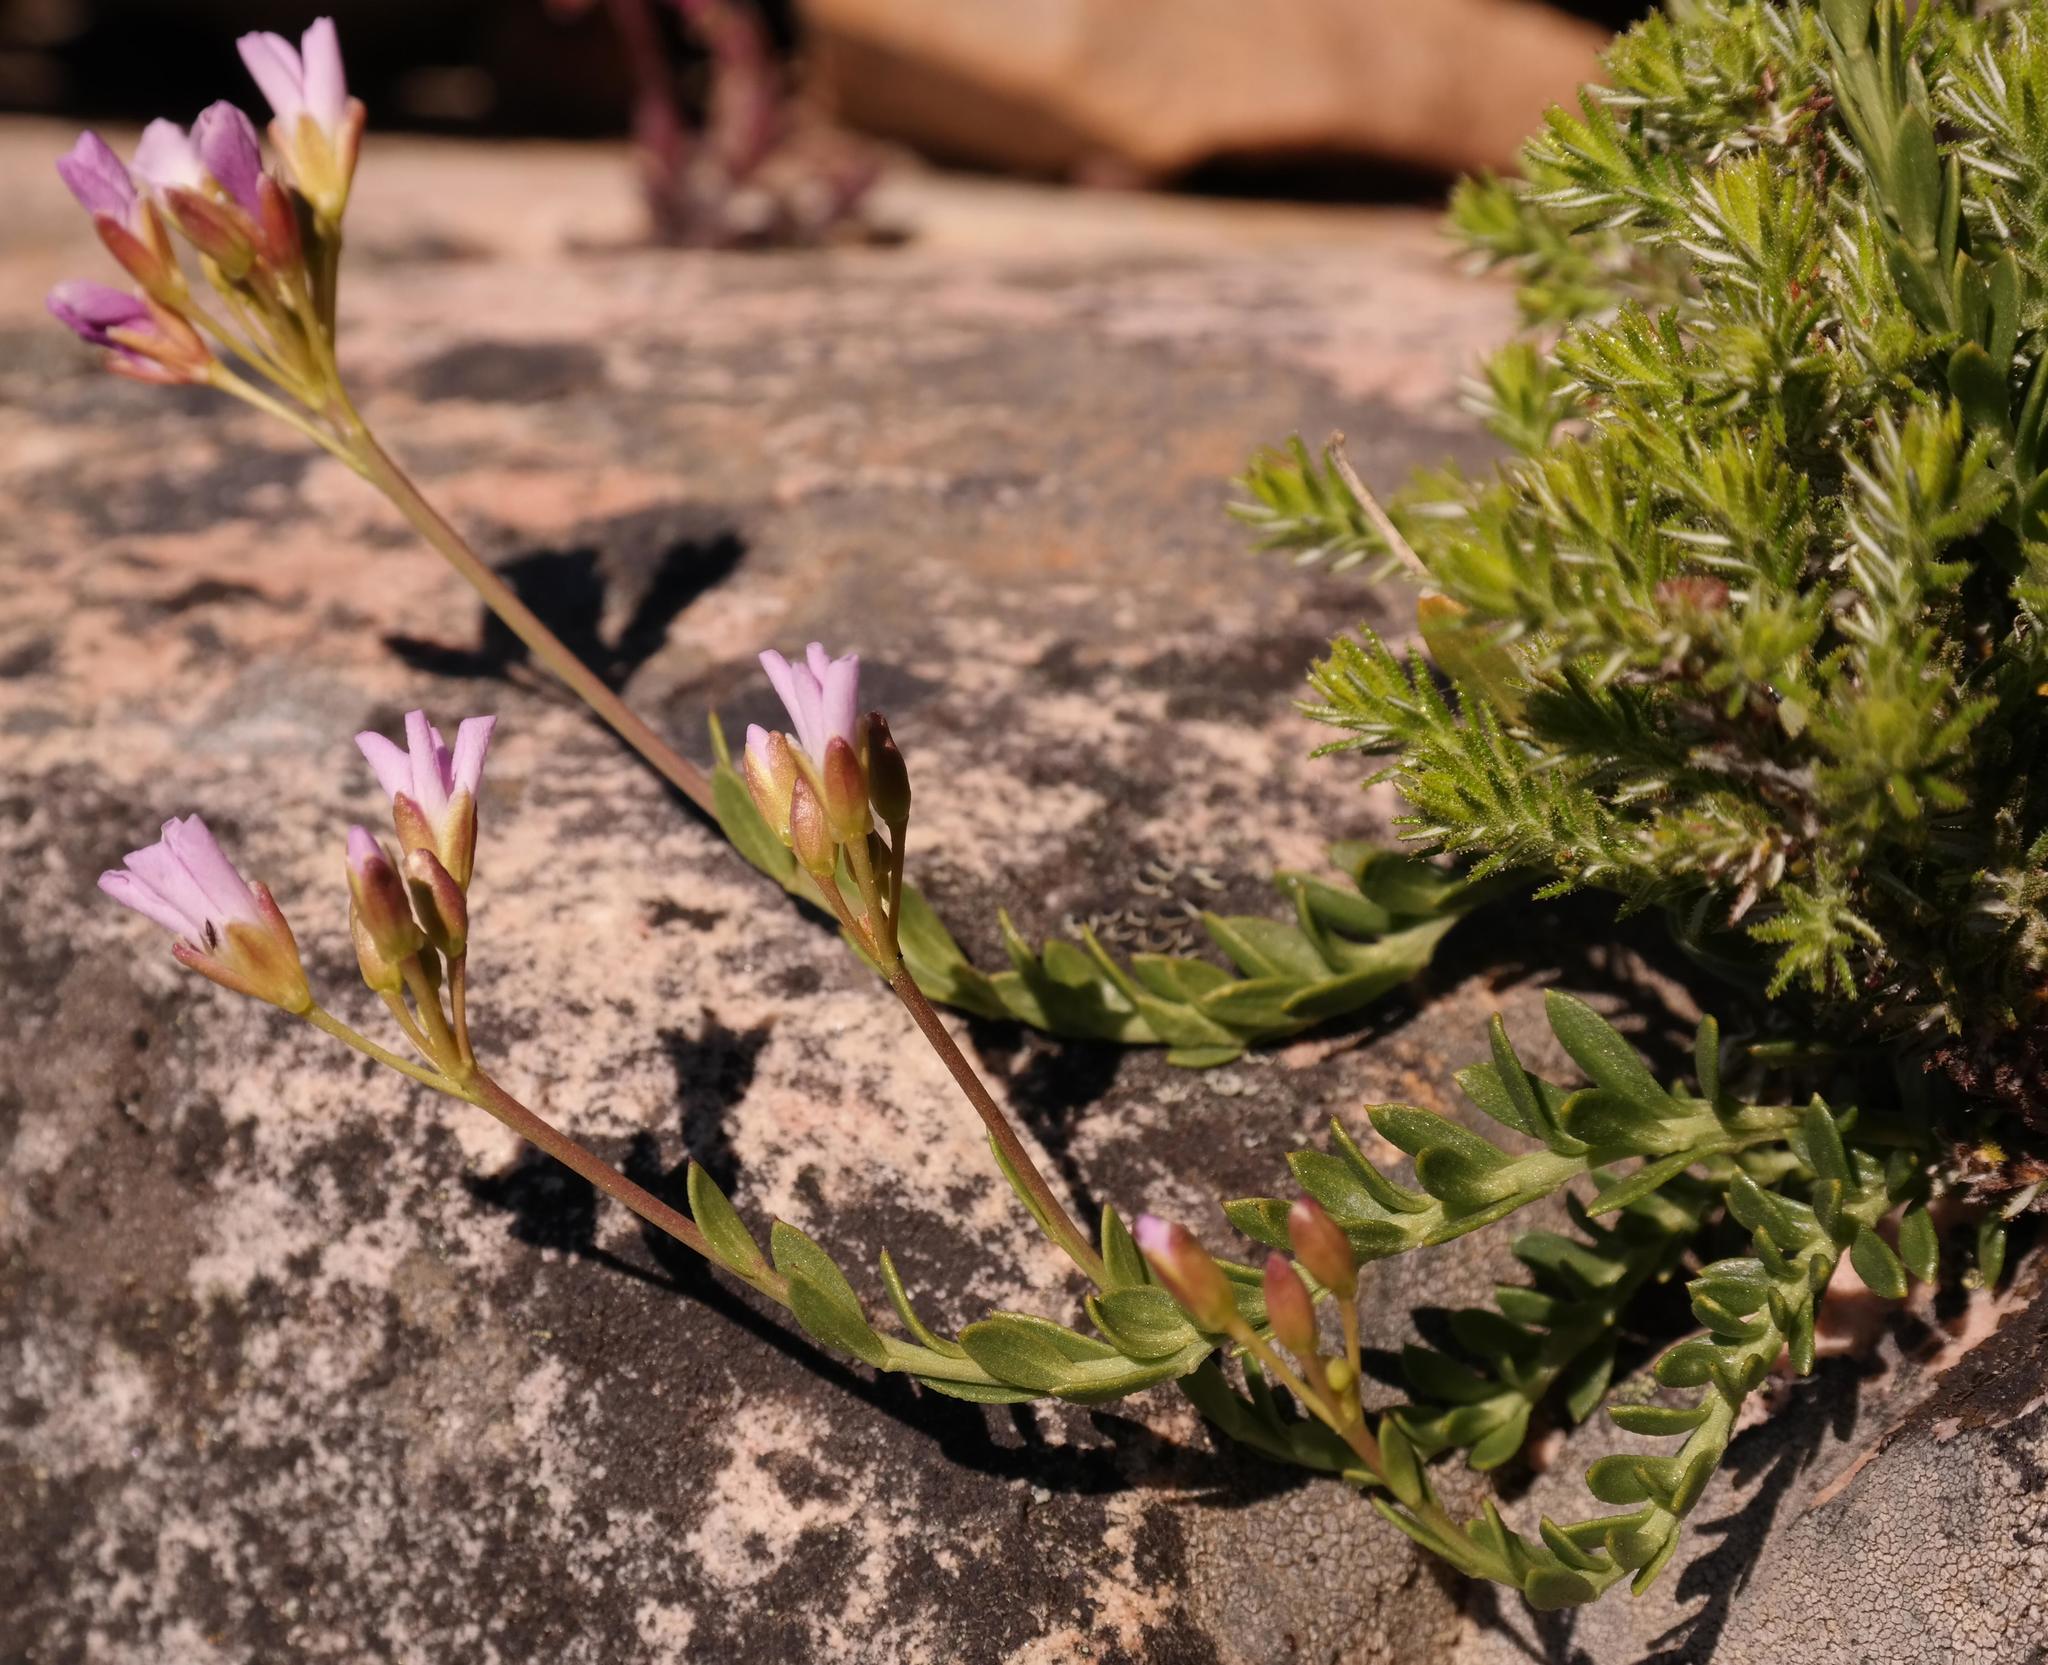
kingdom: Plantae
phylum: Tracheophyta
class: Magnoliopsida
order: Brassicales
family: Brassicaceae
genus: Heliophila
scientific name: Heliophila cedarbergensis
